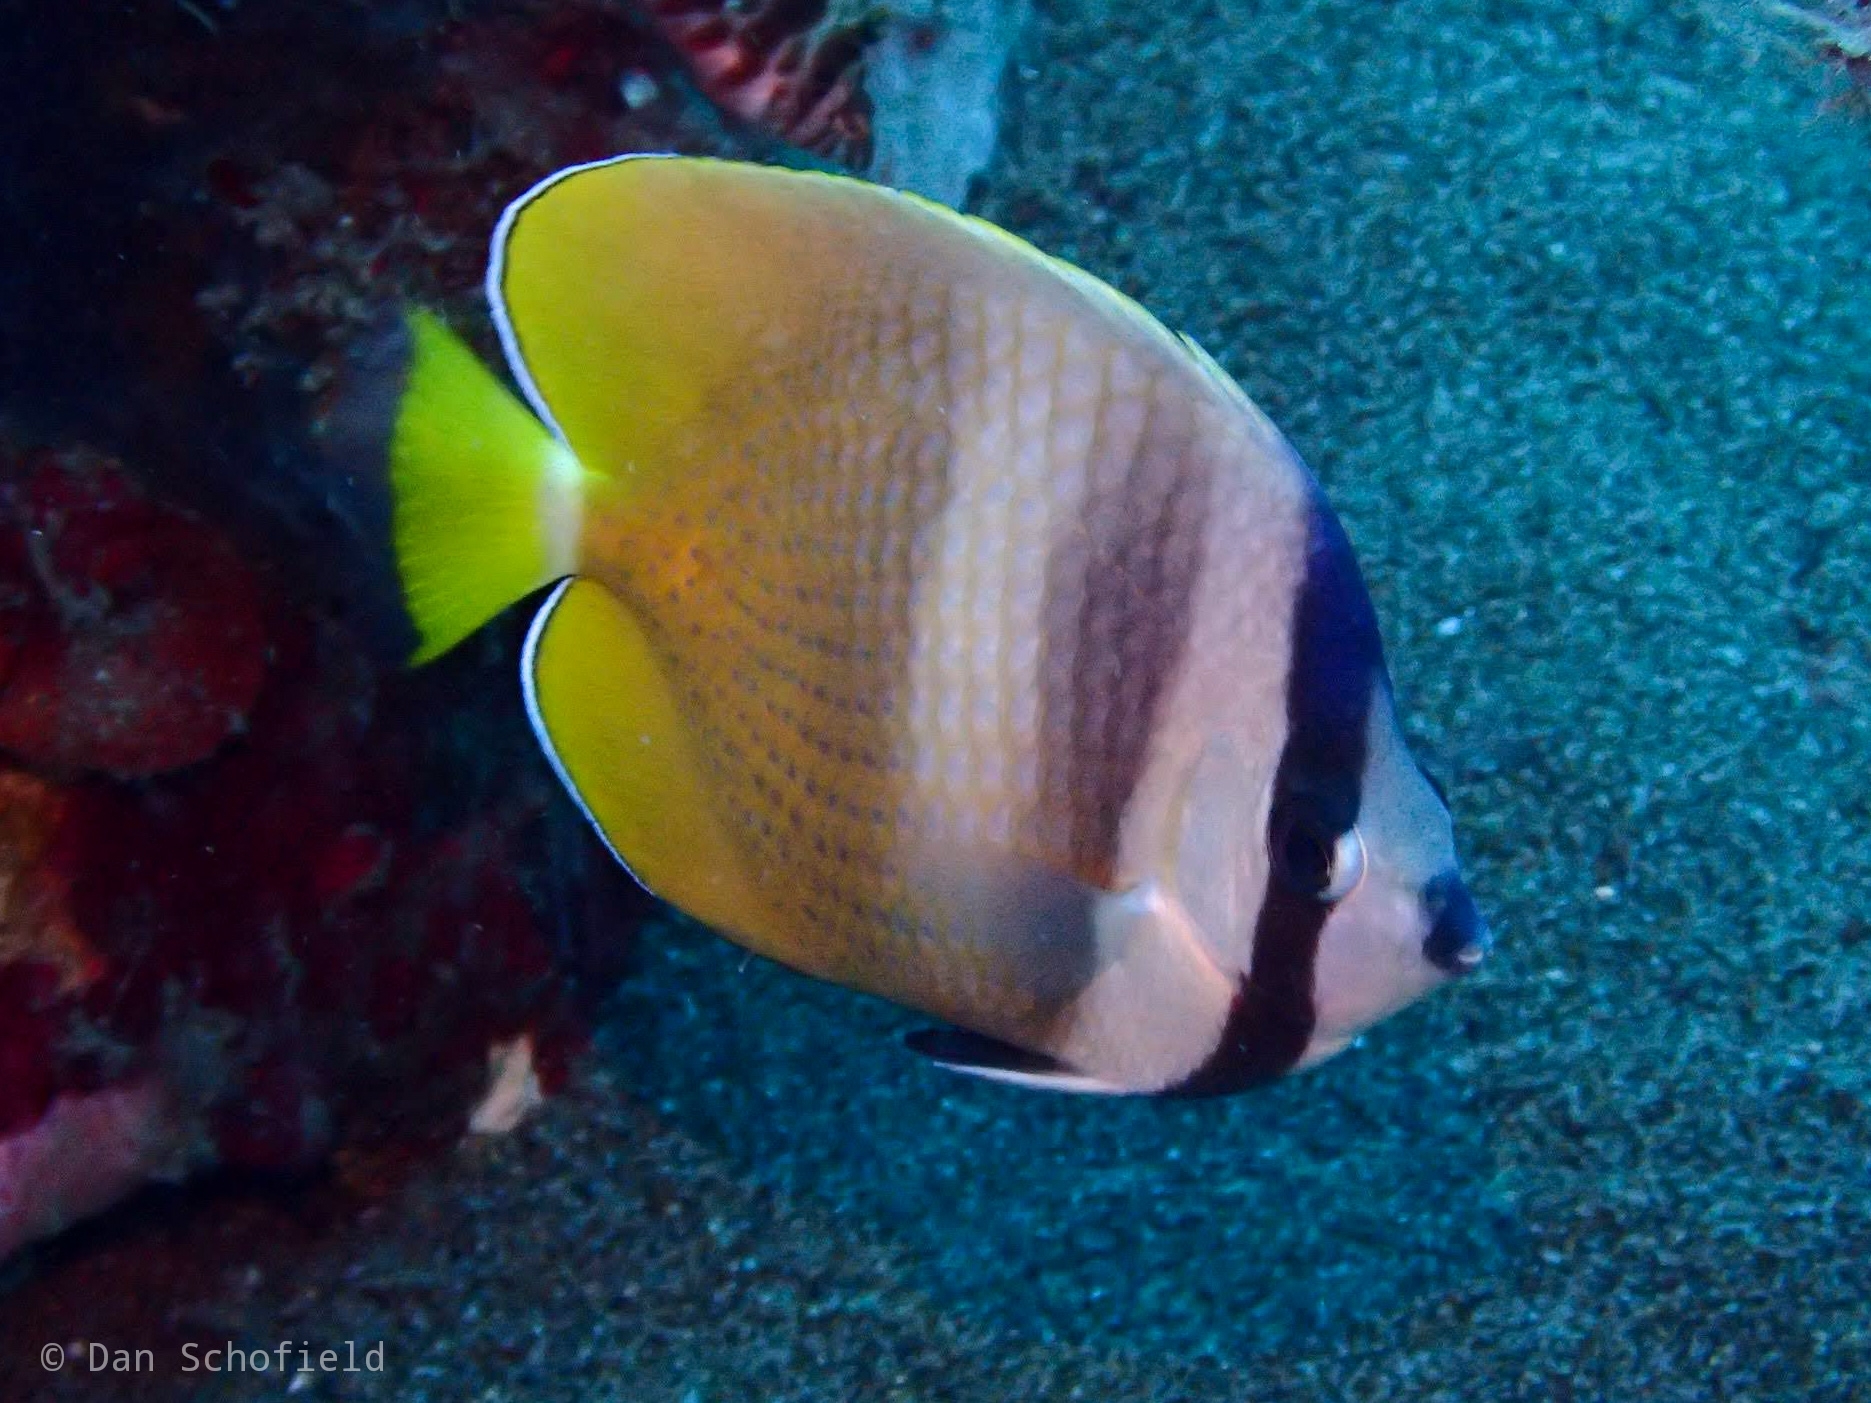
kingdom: Animalia
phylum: Chordata
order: Perciformes
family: Chaetodontidae
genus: Chaetodon
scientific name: Chaetodon kleinii
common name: Klein's butterflyfish
